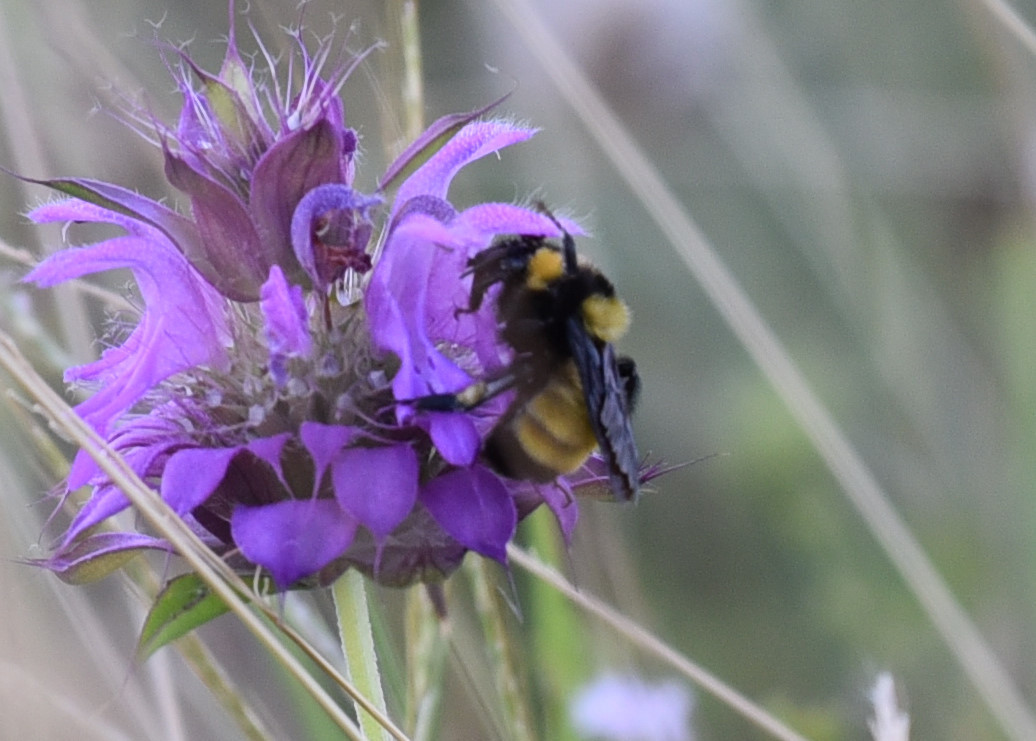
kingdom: Animalia
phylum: Arthropoda
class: Insecta
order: Hymenoptera
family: Apidae
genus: Bombus
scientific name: Bombus sonorus
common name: Sonoran bumble bee
